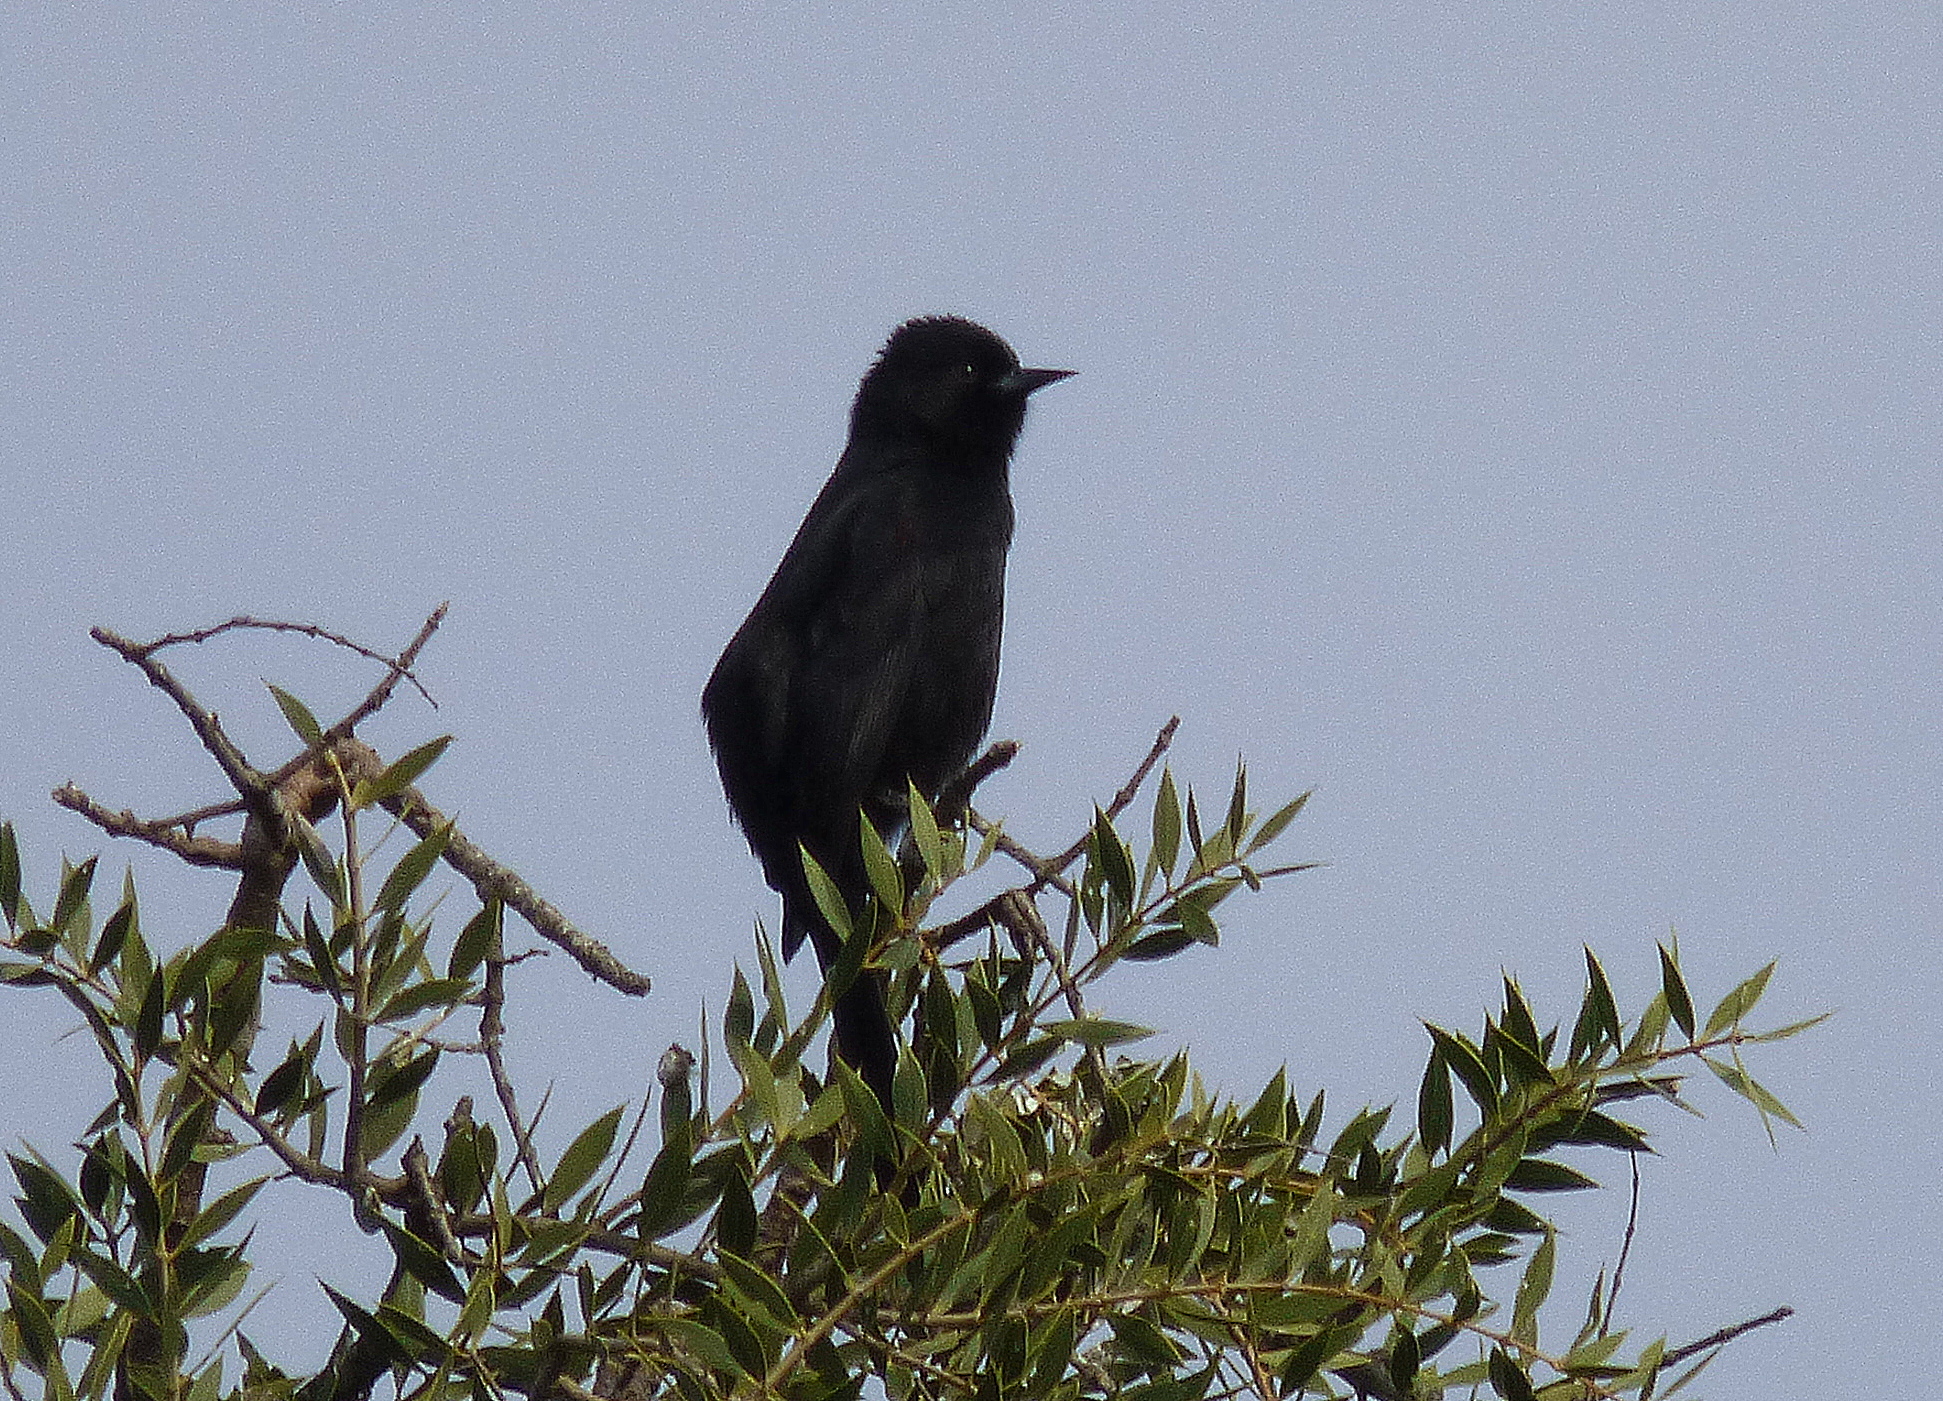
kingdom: Animalia
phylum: Chordata
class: Aves
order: Passeriformes
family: Icteridae
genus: Icterus
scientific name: Icterus cayanensis
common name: Epaulet oriole
